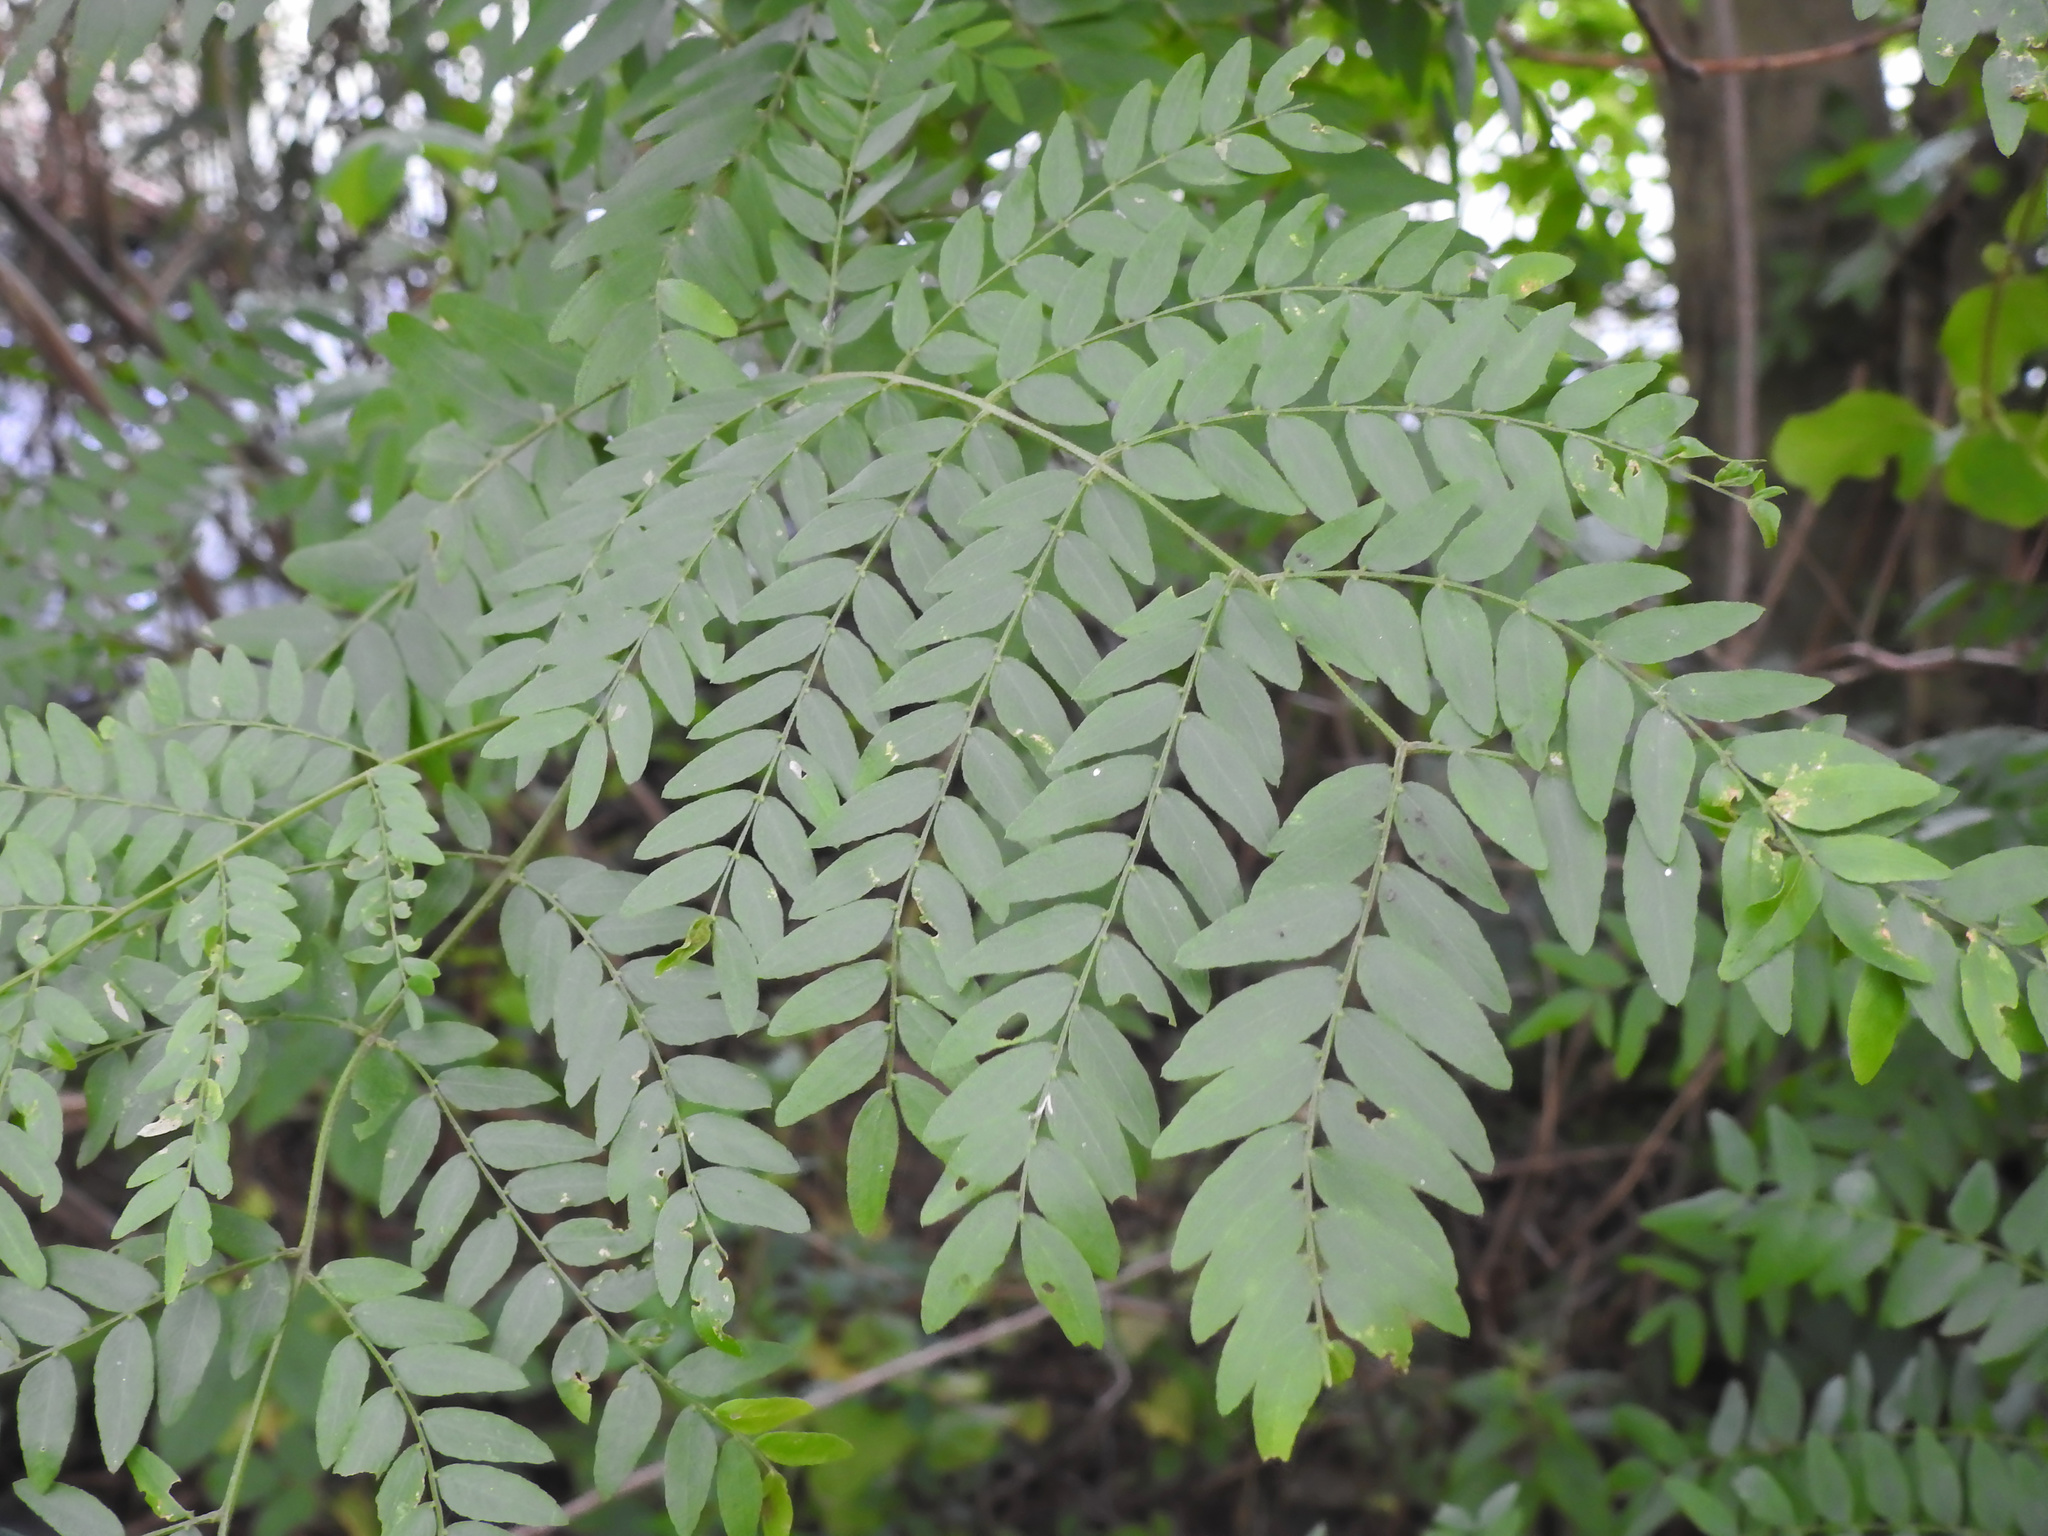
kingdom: Plantae
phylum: Tracheophyta
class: Magnoliopsida
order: Fabales
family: Fabaceae
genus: Gleditsia
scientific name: Gleditsia triacanthos
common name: Common honeylocust
